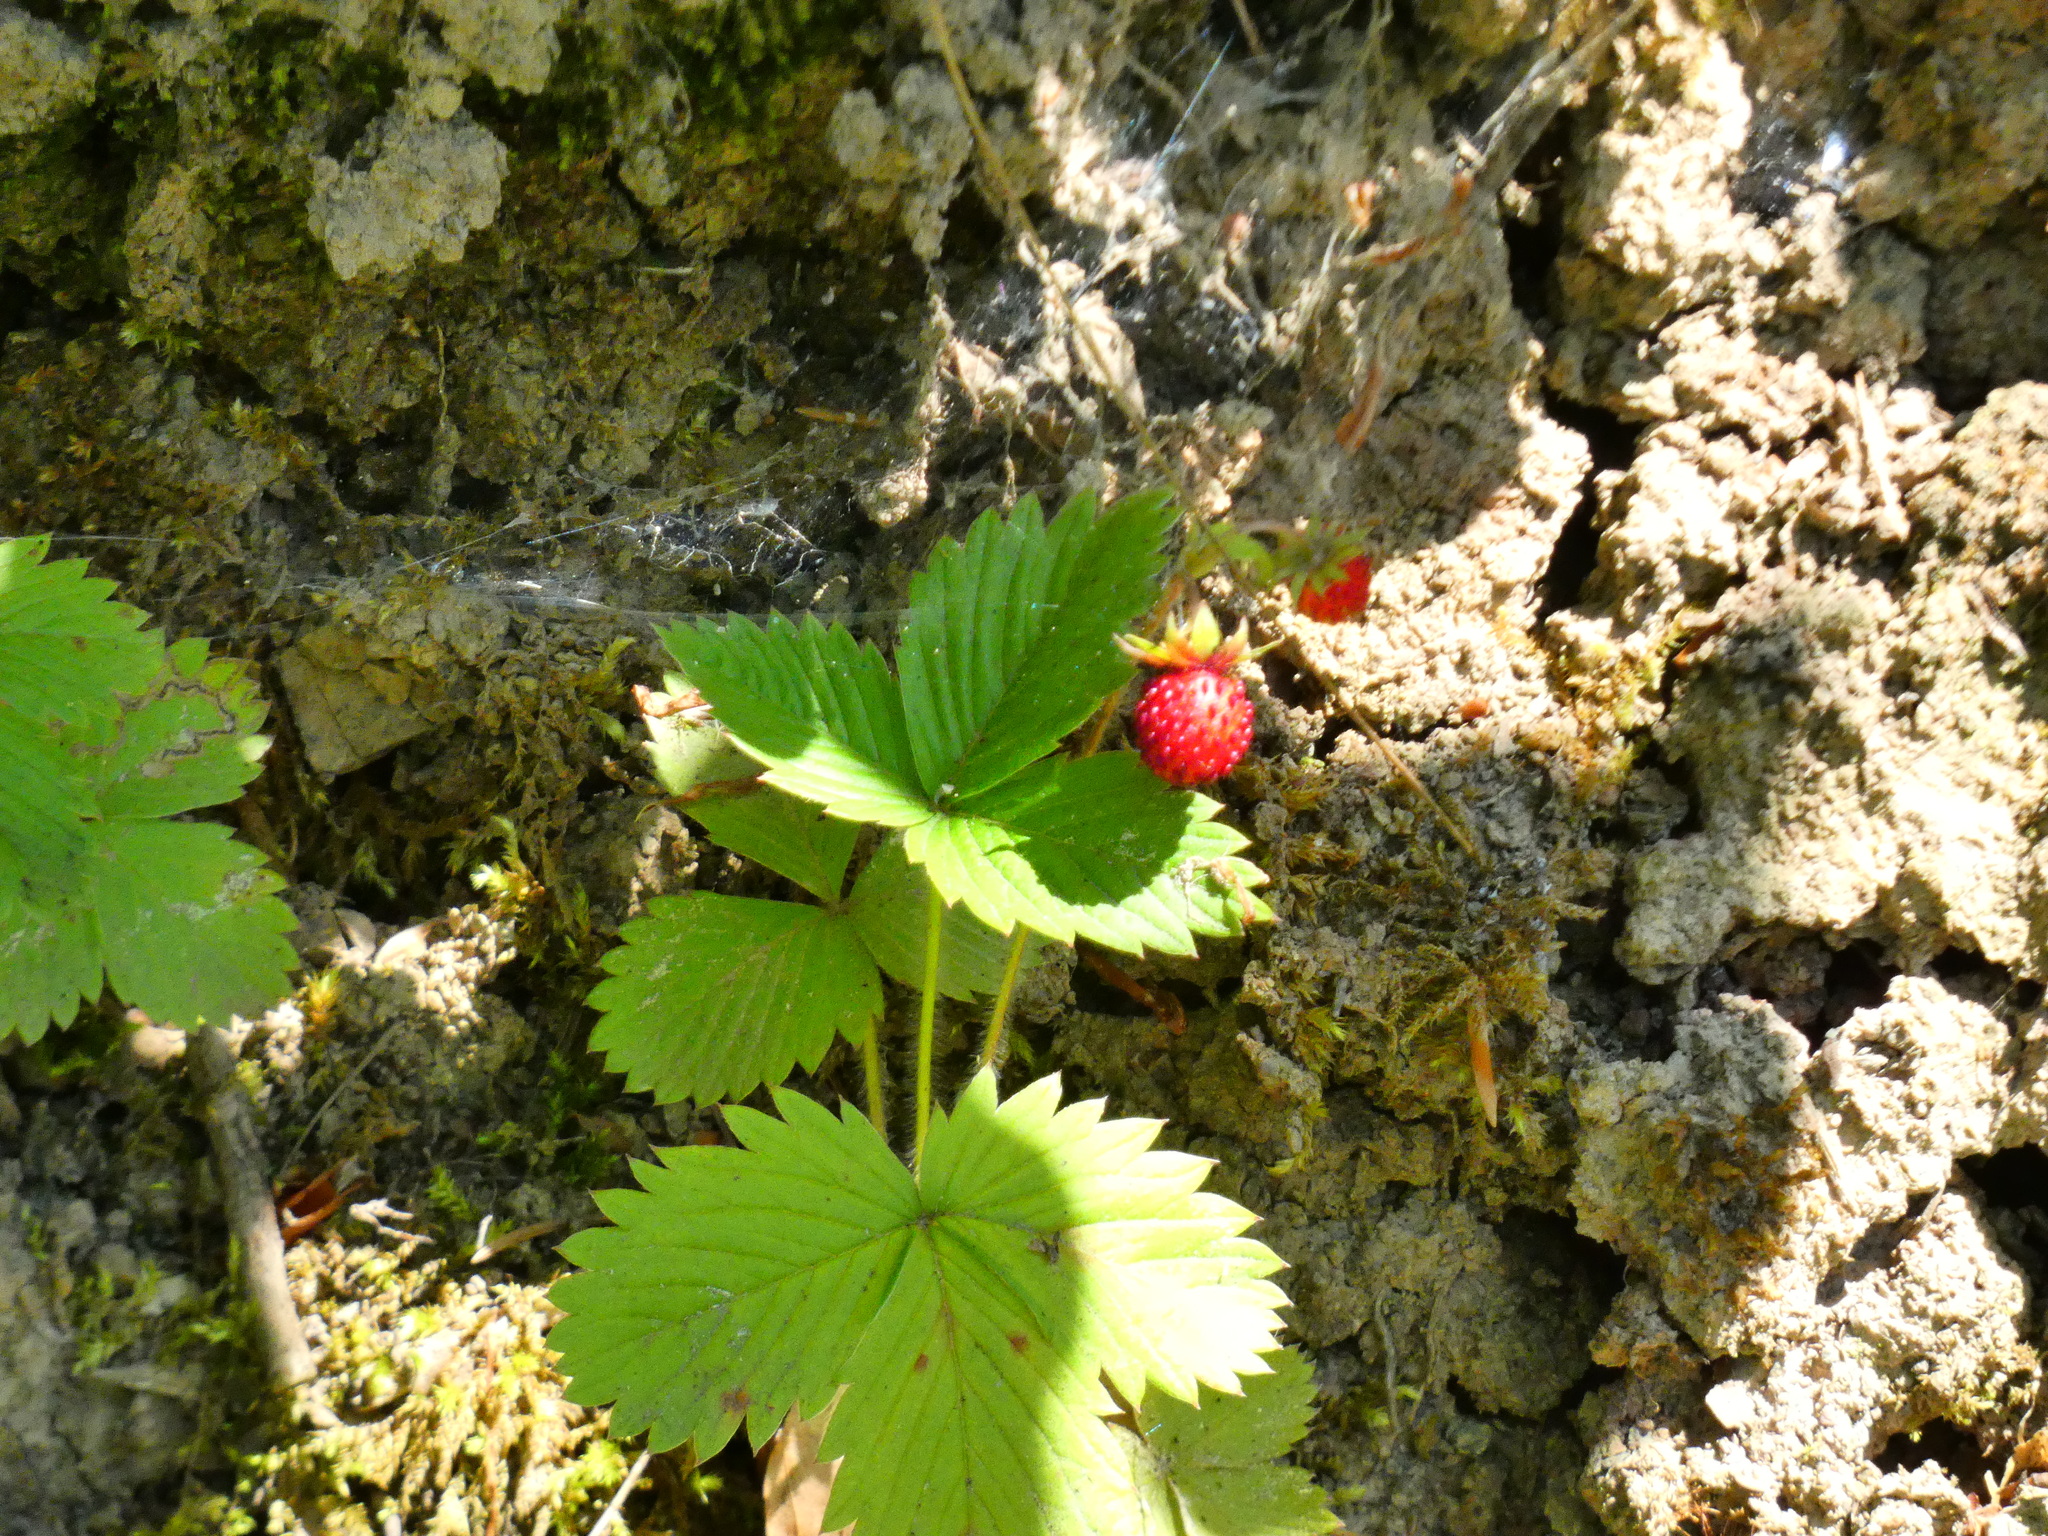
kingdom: Plantae
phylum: Tracheophyta
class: Magnoliopsida
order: Rosales
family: Rosaceae
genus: Fragaria
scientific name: Fragaria vesca
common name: Wild strawberry
